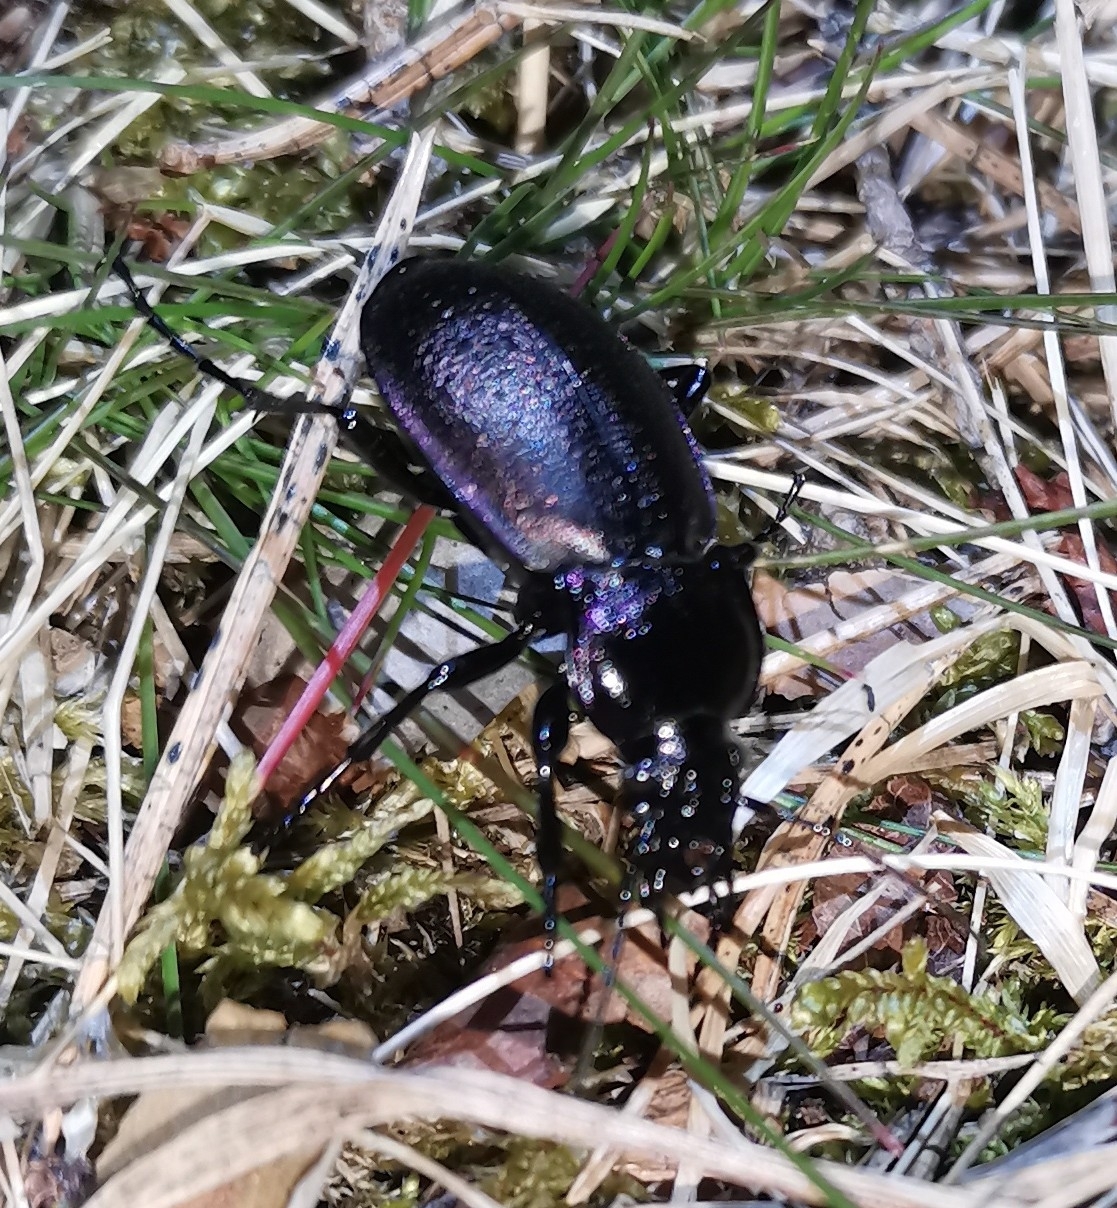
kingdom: Animalia
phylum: Arthropoda
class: Insecta
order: Coleoptera
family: Carabidae
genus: Carabus
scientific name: Carabus nemoralis
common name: European ground beetle
